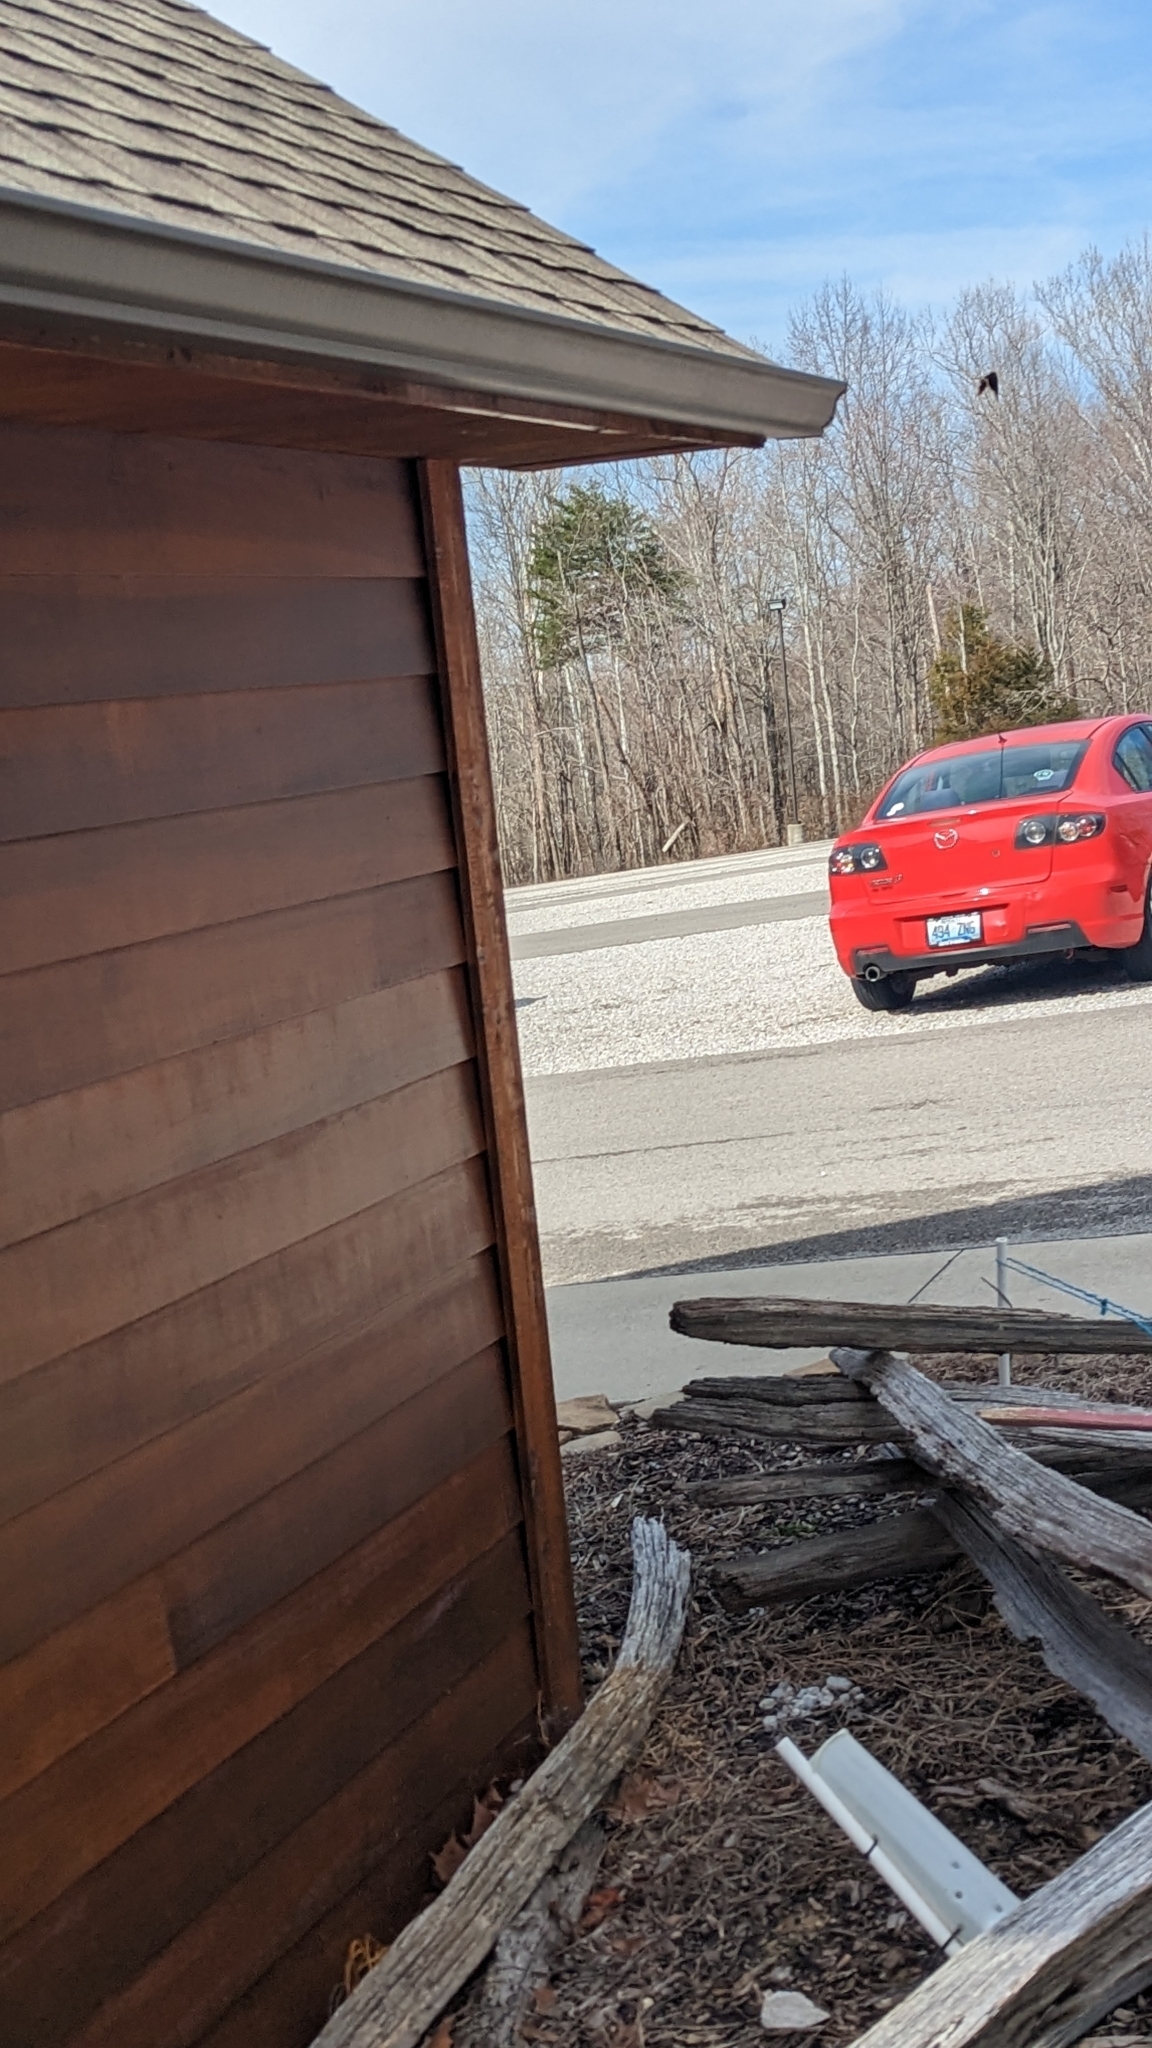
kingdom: Animalia
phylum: Arthropoda
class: Insecta
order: Lepidoptera
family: Nymphalidae
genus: Nymphalis
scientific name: Nymphalis antiopa
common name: Camberwell beauty
